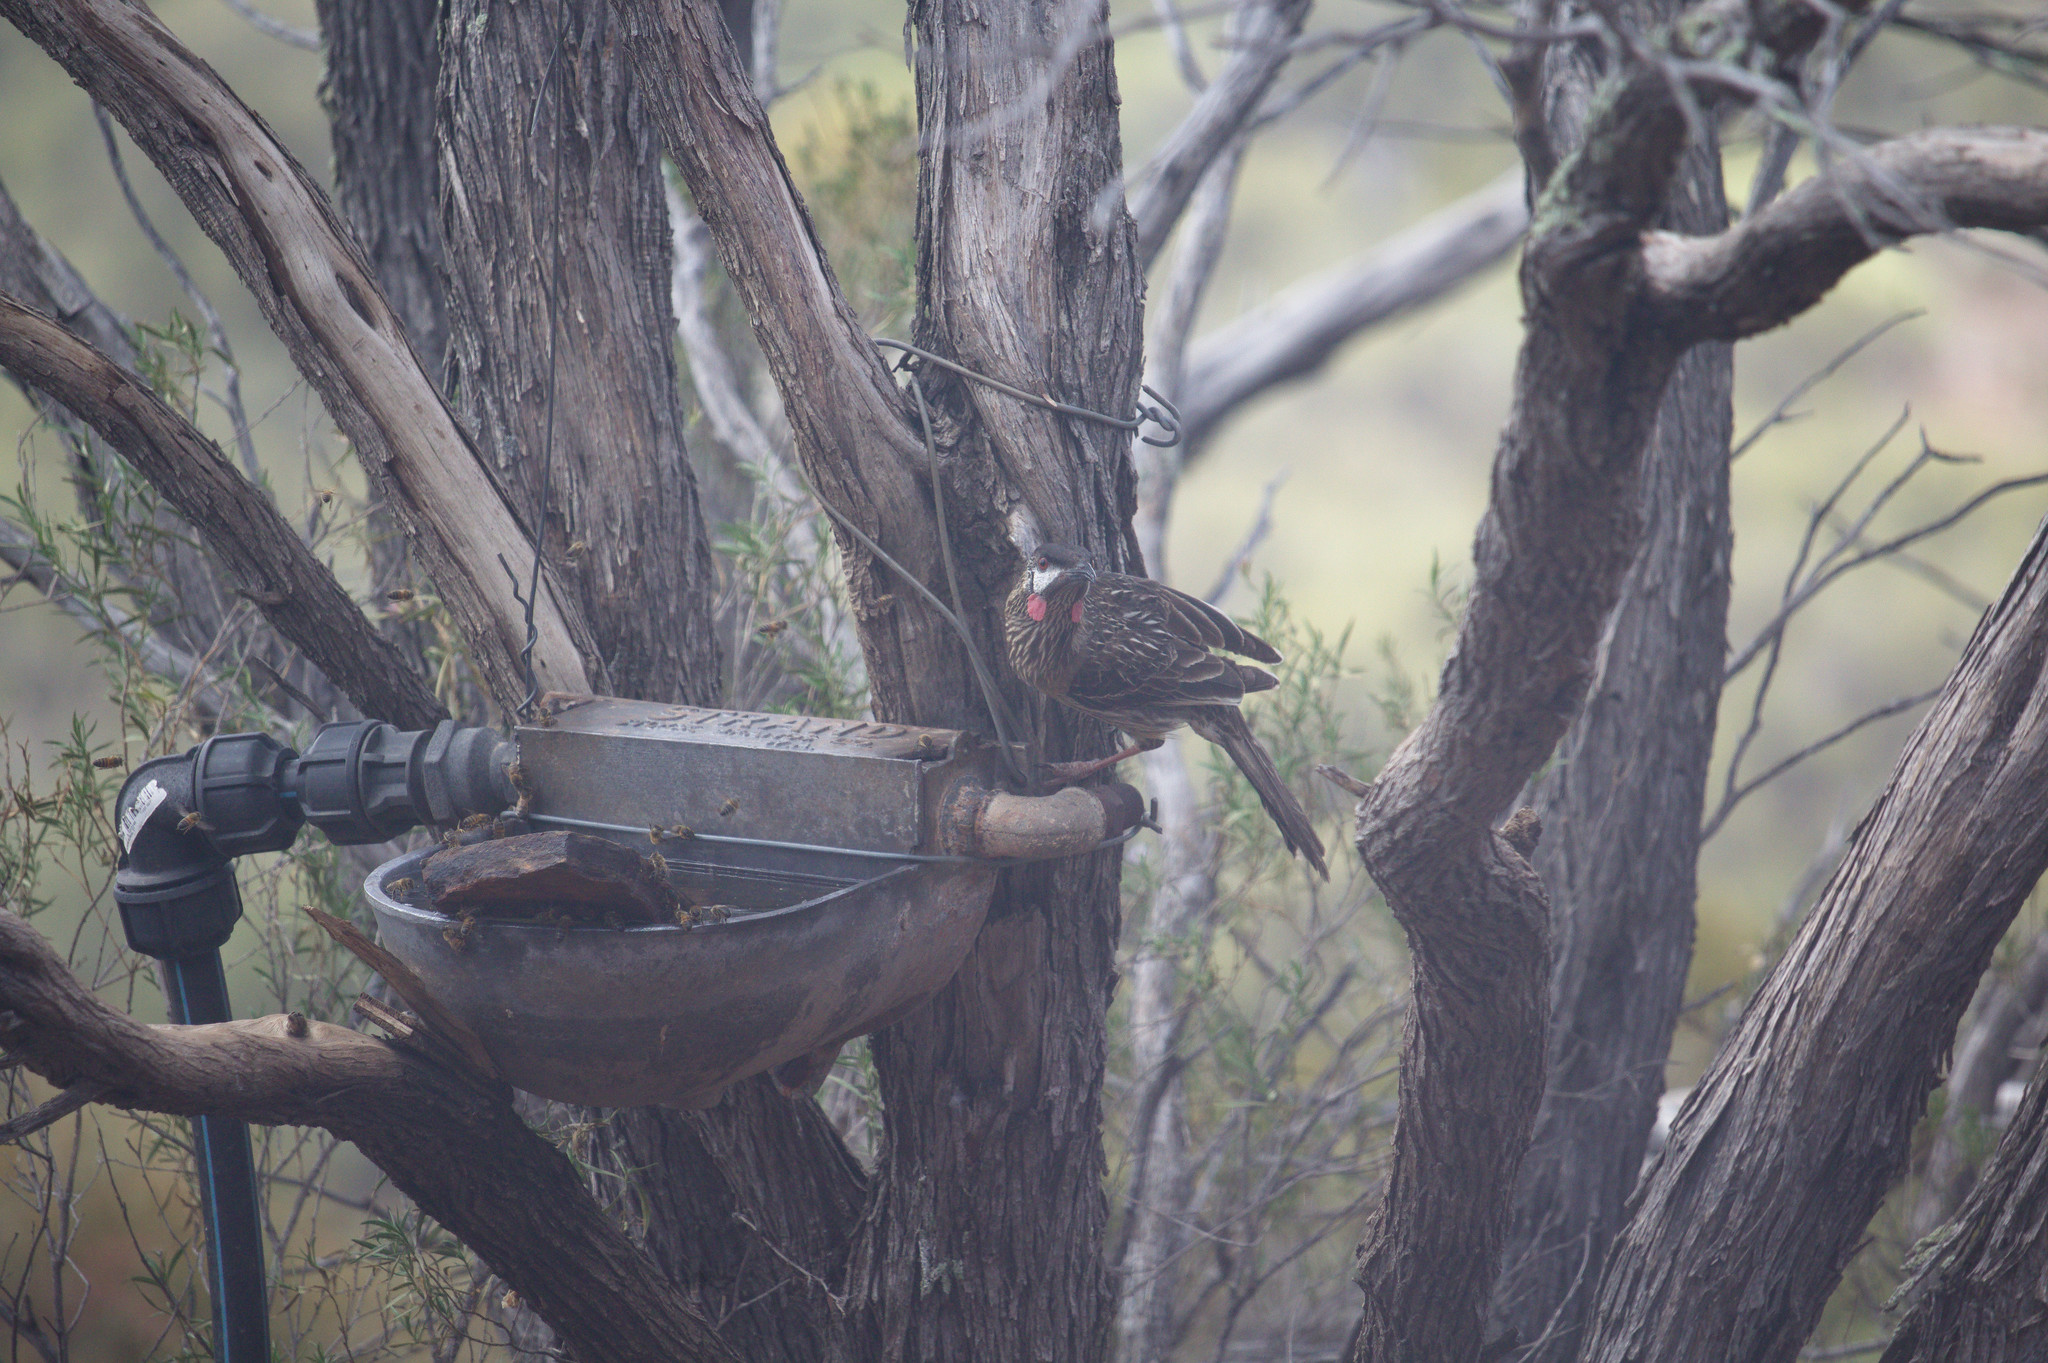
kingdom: Animalia
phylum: Chordata
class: Aves
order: Passeriformes
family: Meliphagidae
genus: Anthochaera
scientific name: Anthochaera carunculata
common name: Red wattlebird
